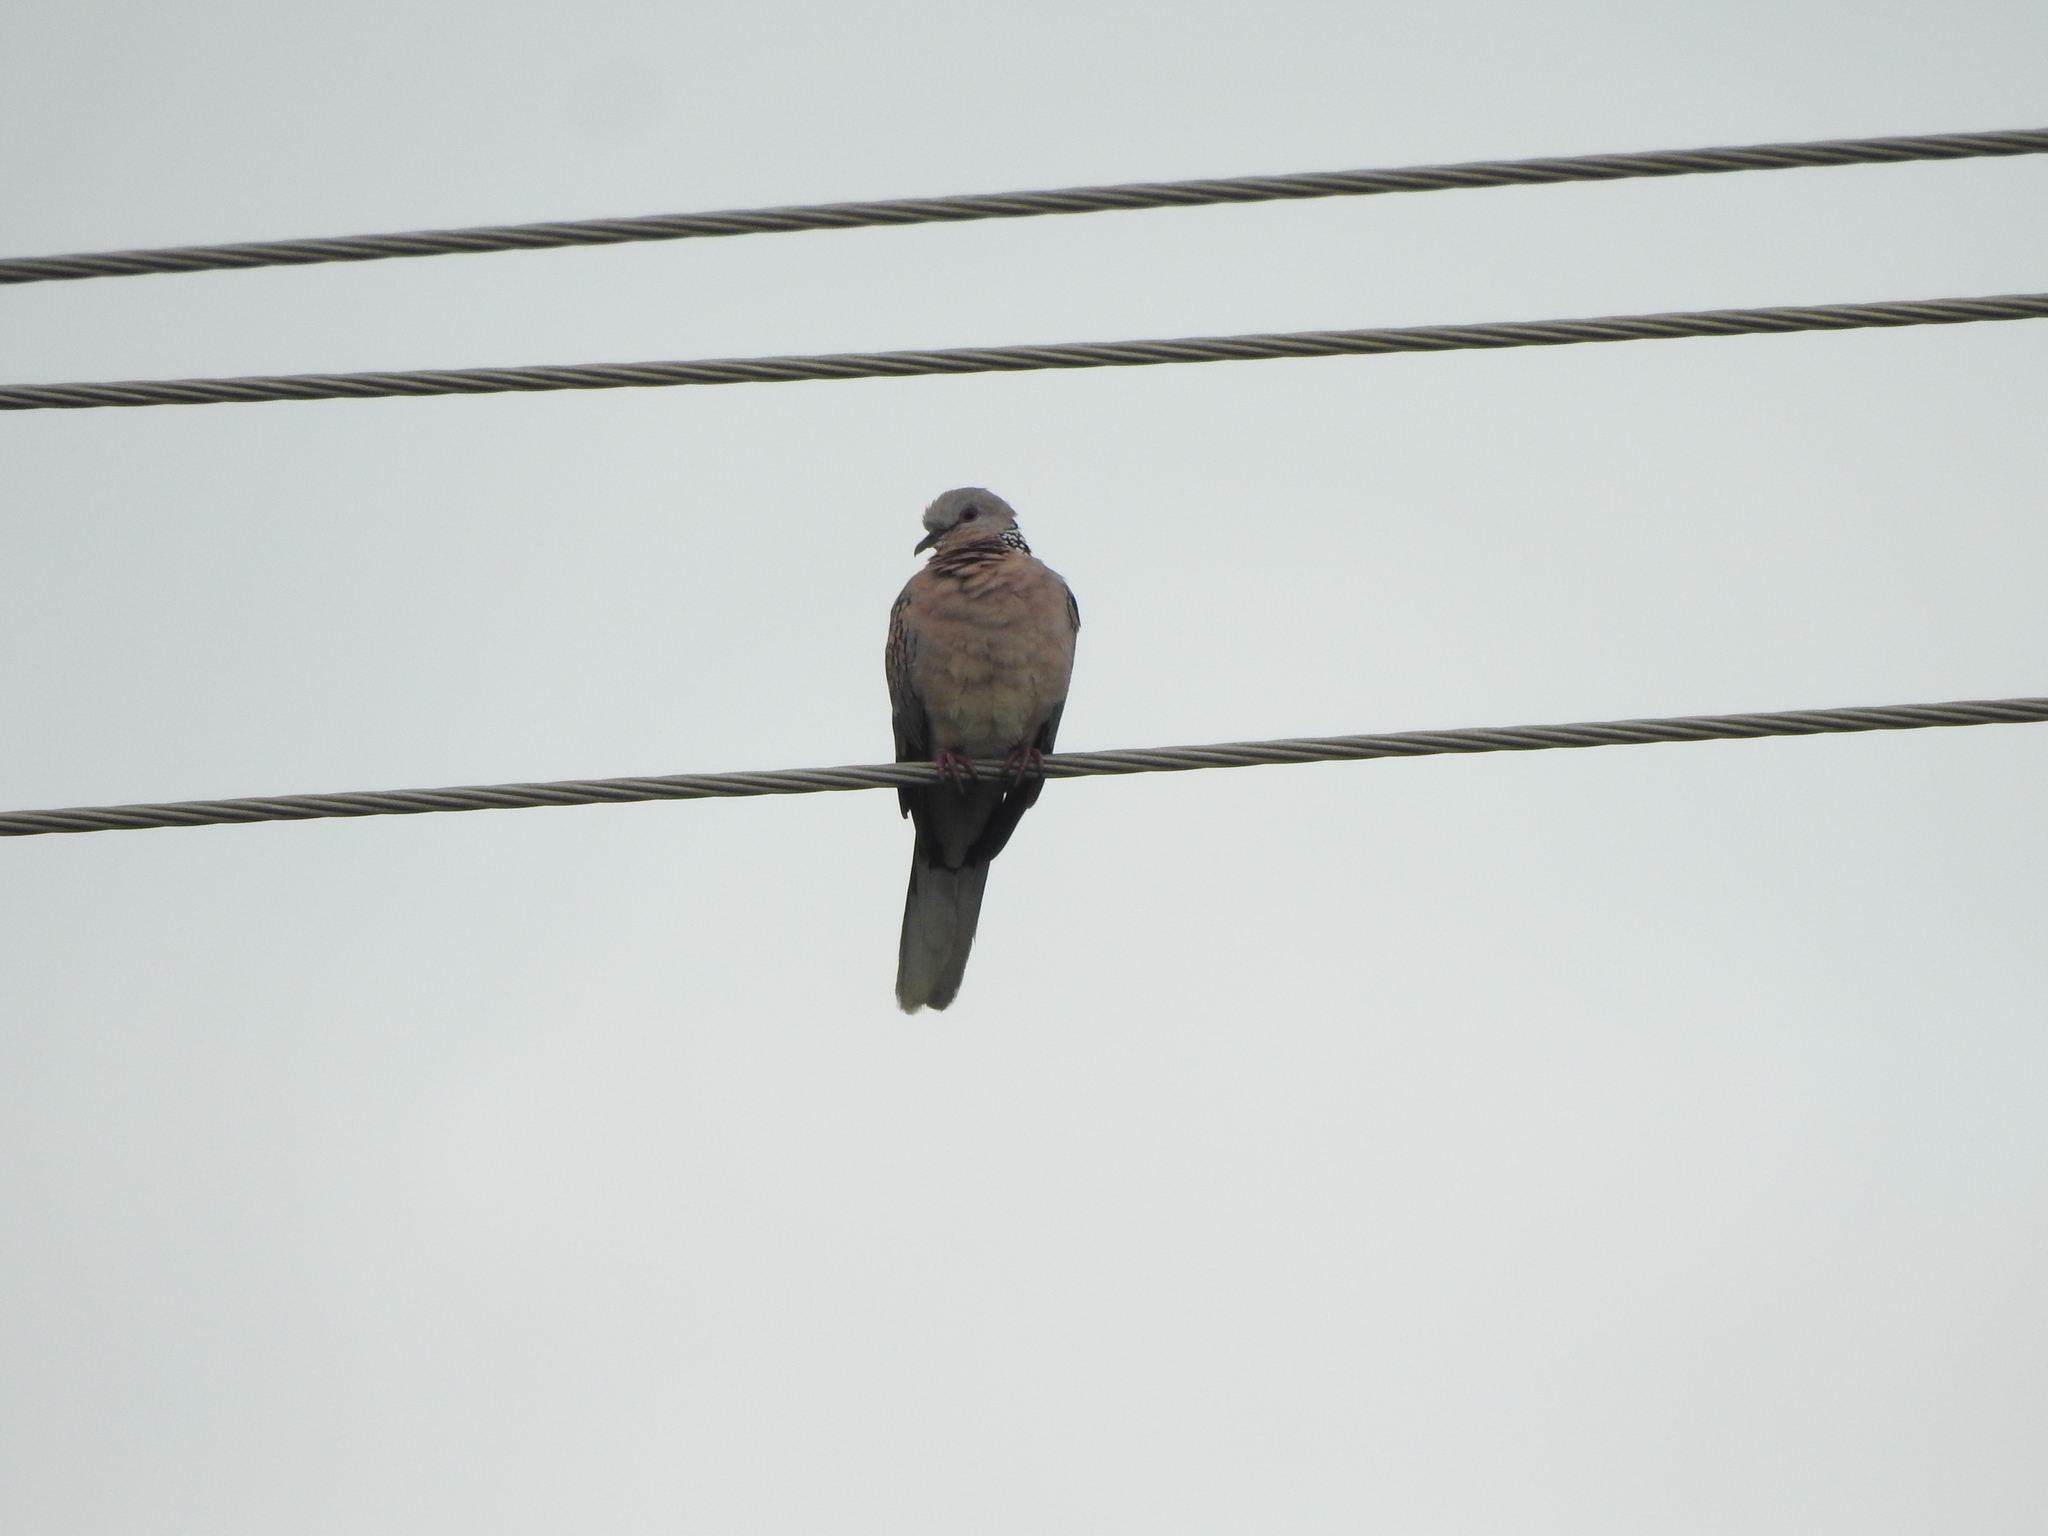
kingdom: Animalia
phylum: Chordata
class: Aves
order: Columbiformes
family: Columbidae
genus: Spilopelia
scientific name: Spilopelia chinensis
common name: Spotted dove
